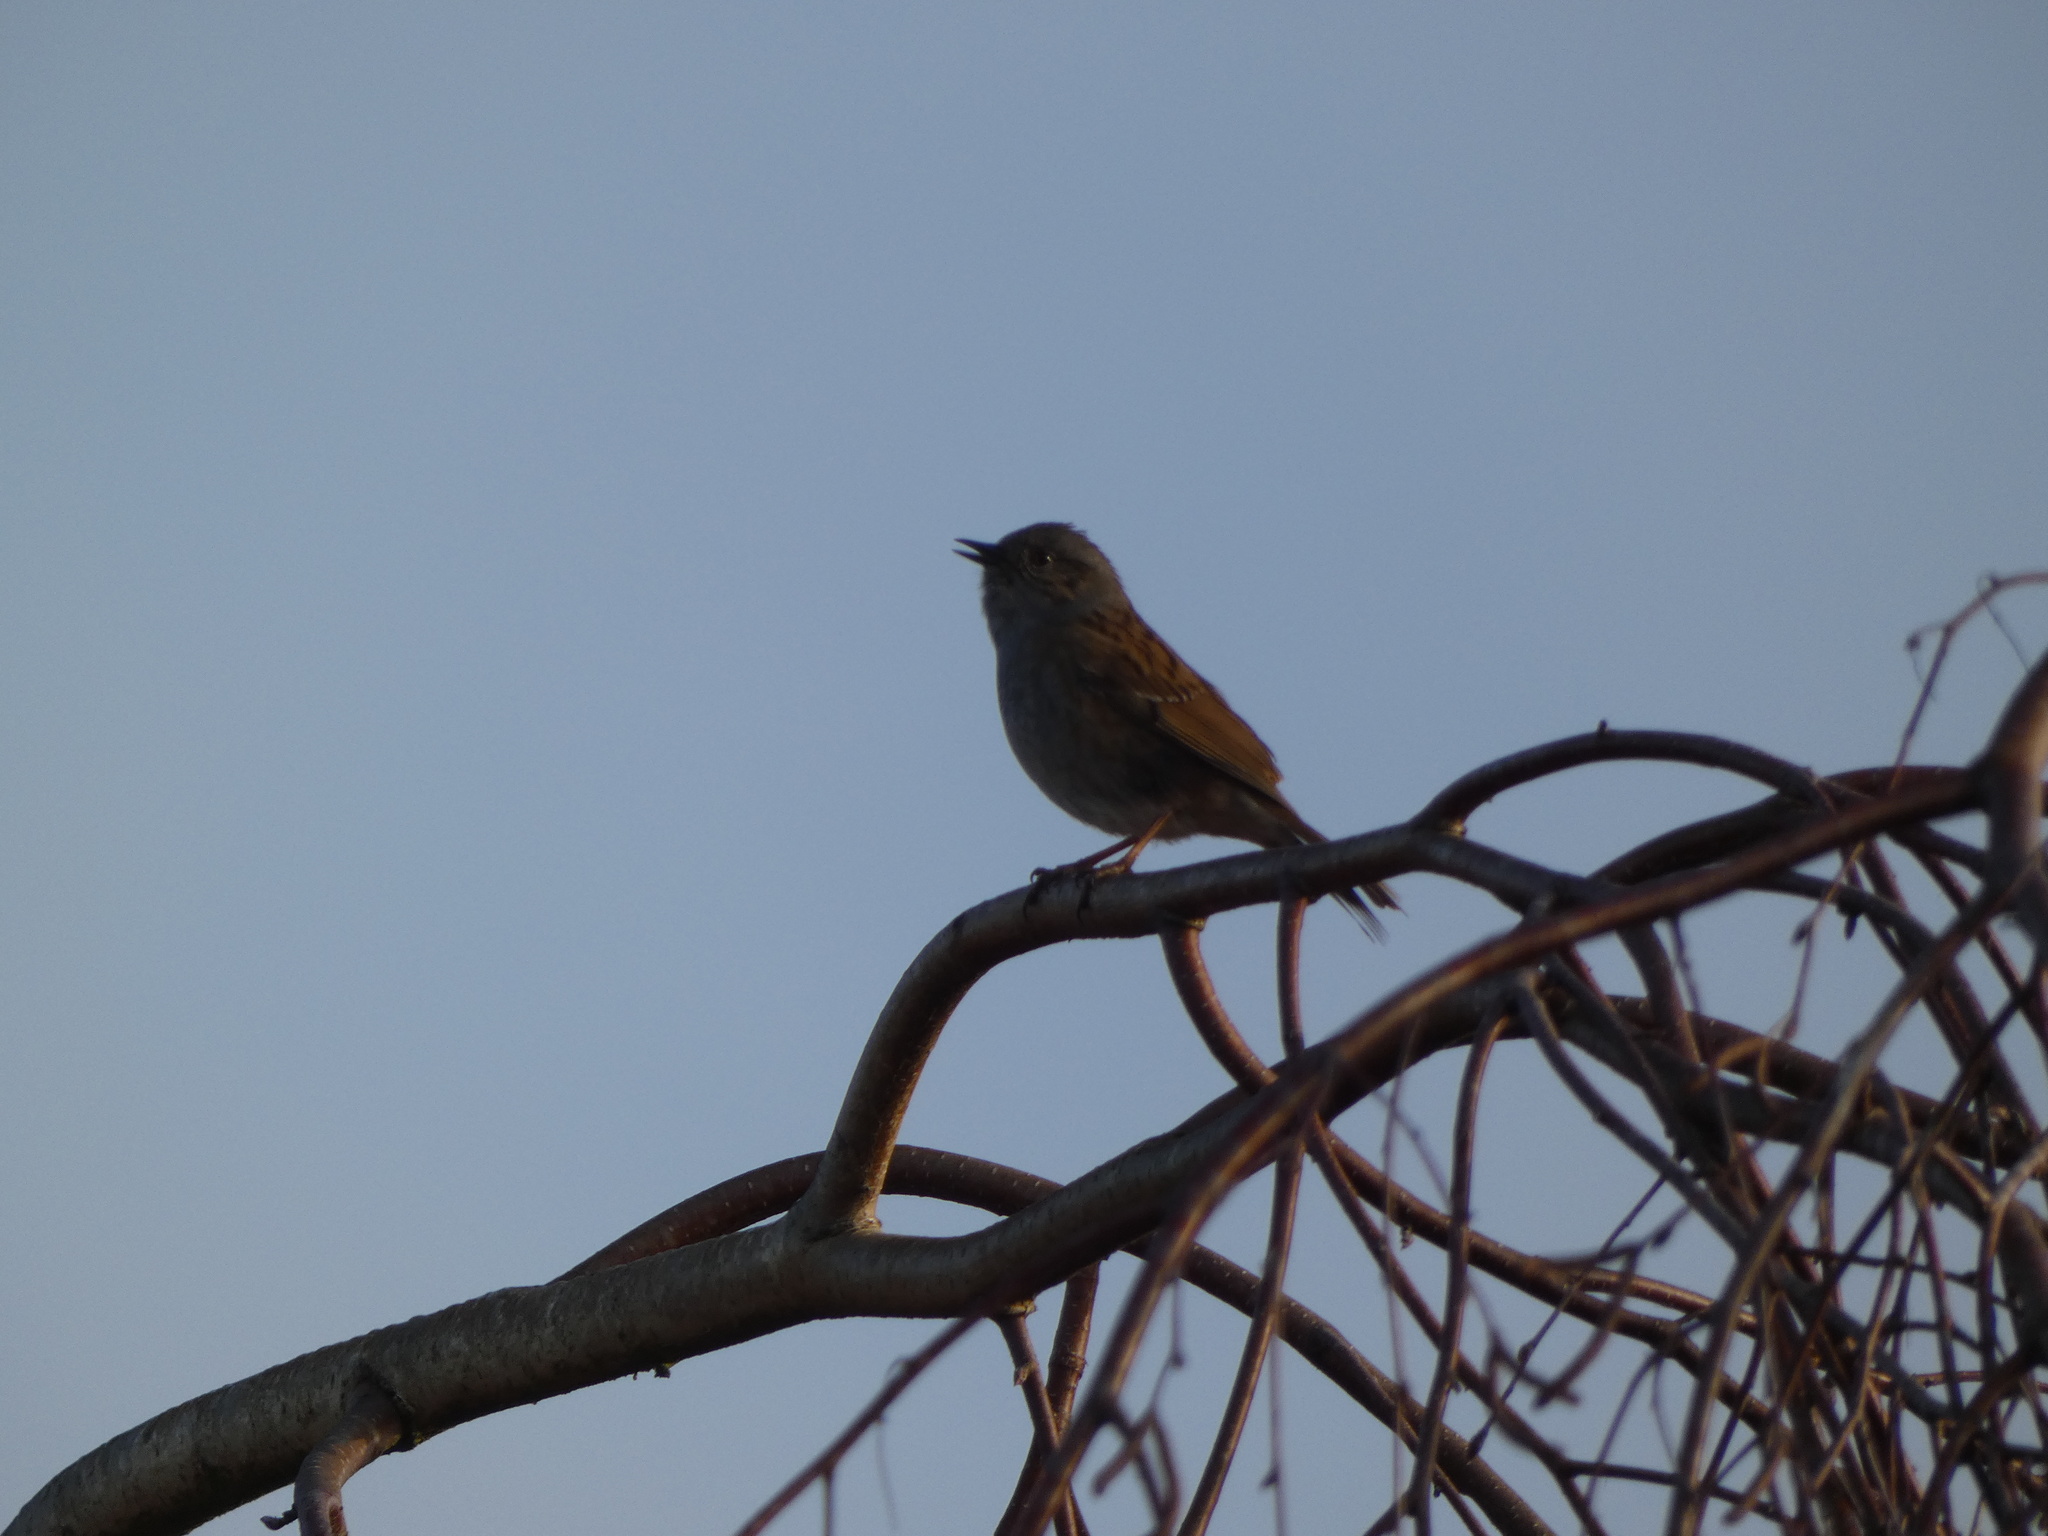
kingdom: Animalia
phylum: Chordata
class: Aves
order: Passeriformes
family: Prunellidae
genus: Prunella
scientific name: Prunella modularis
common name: Dunnock
